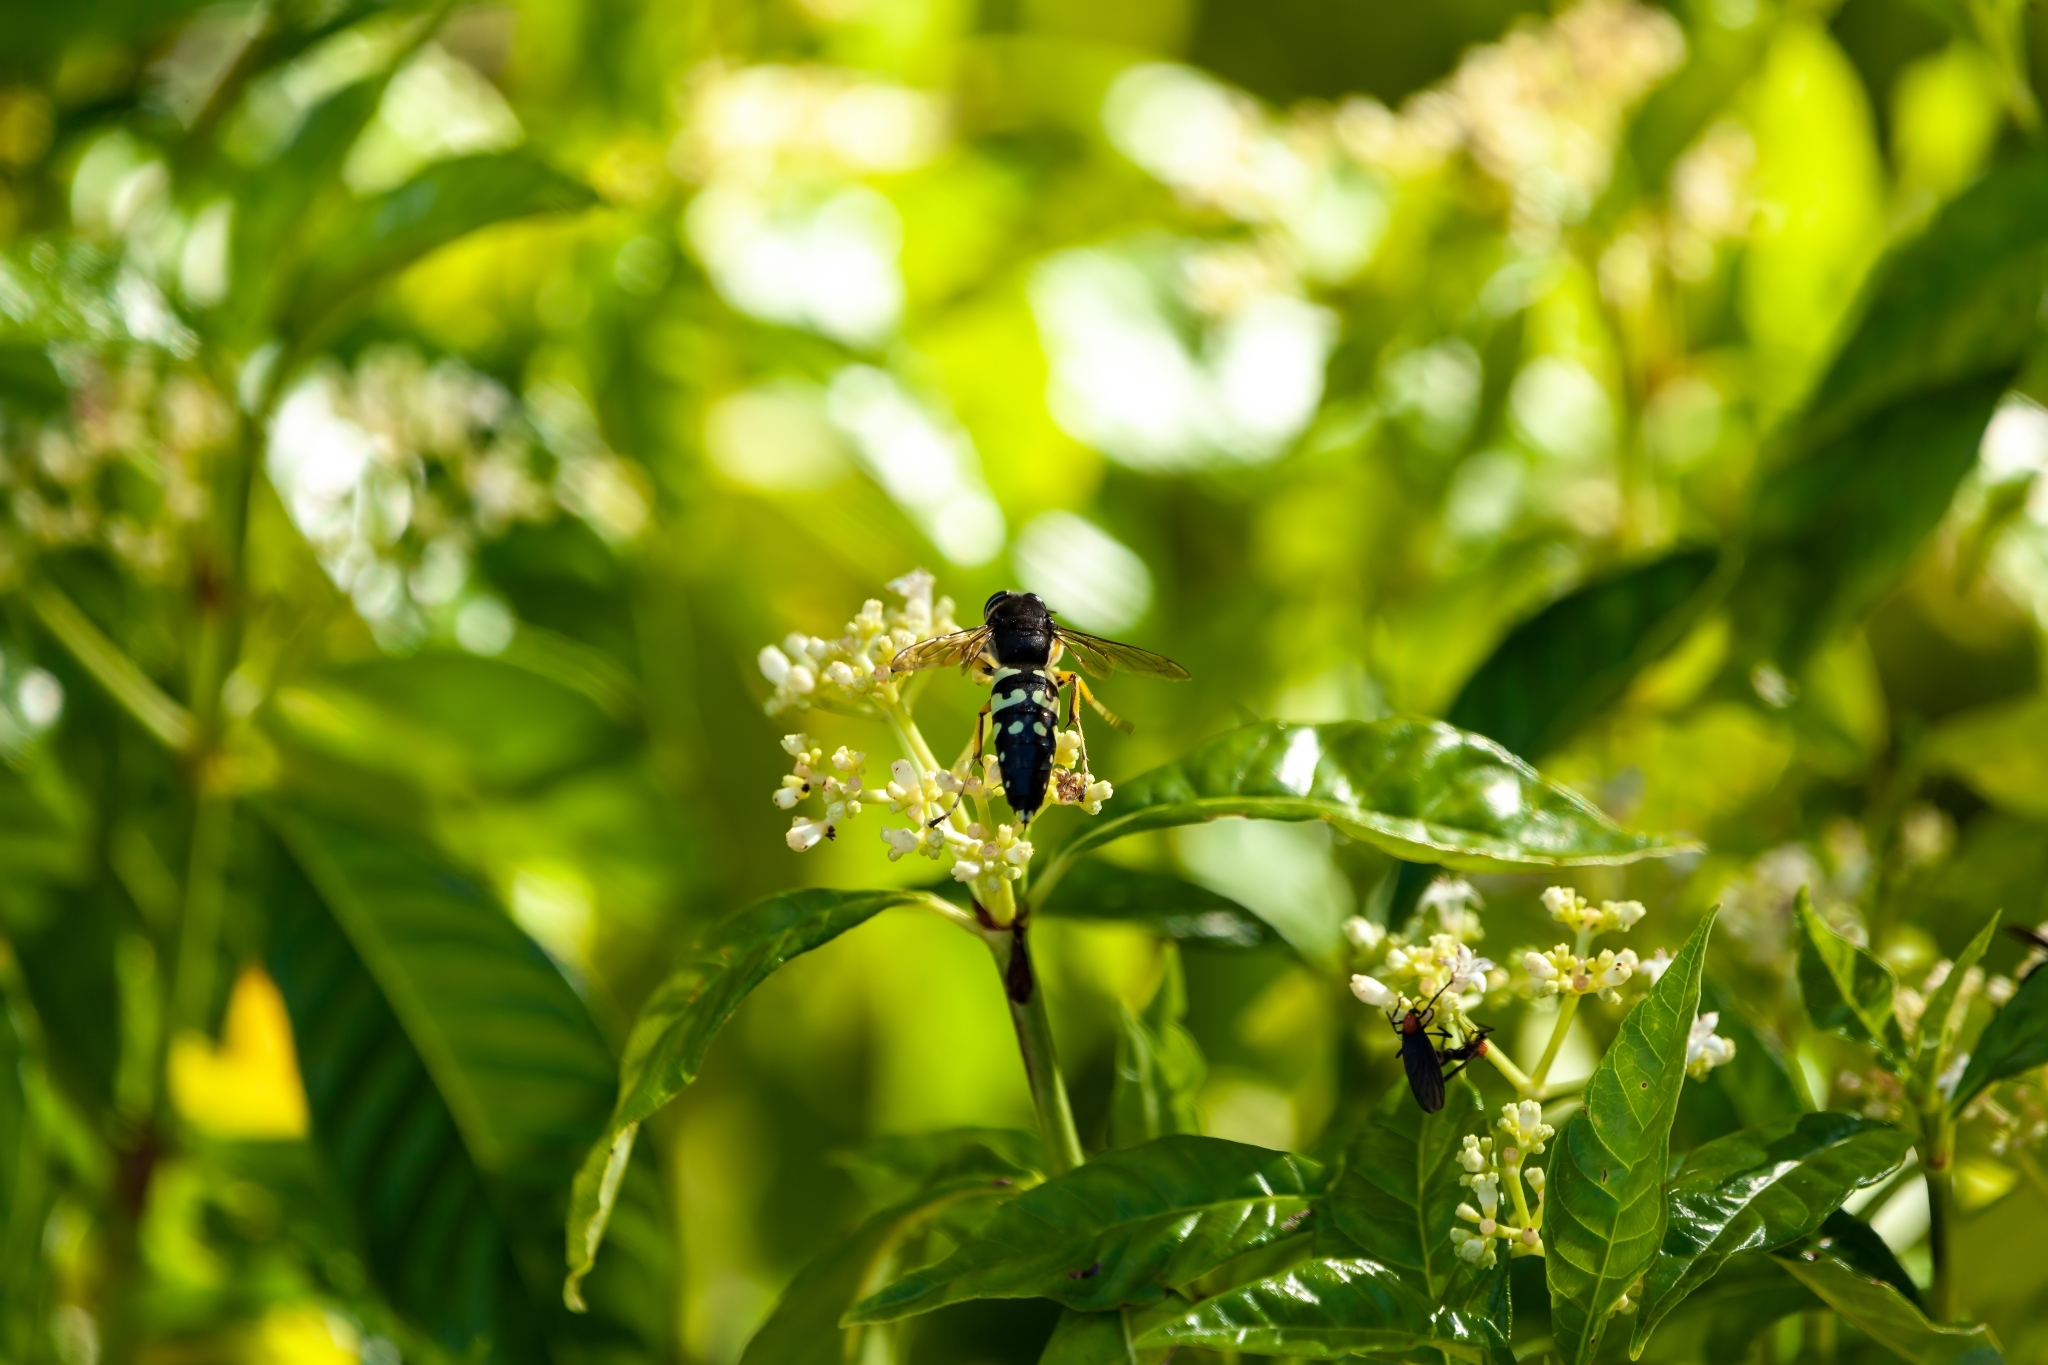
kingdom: Animalia
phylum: Arthropoda
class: Insecta
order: Hymenoptera
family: Crabronidae
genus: Stictia
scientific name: Stictia carolina
